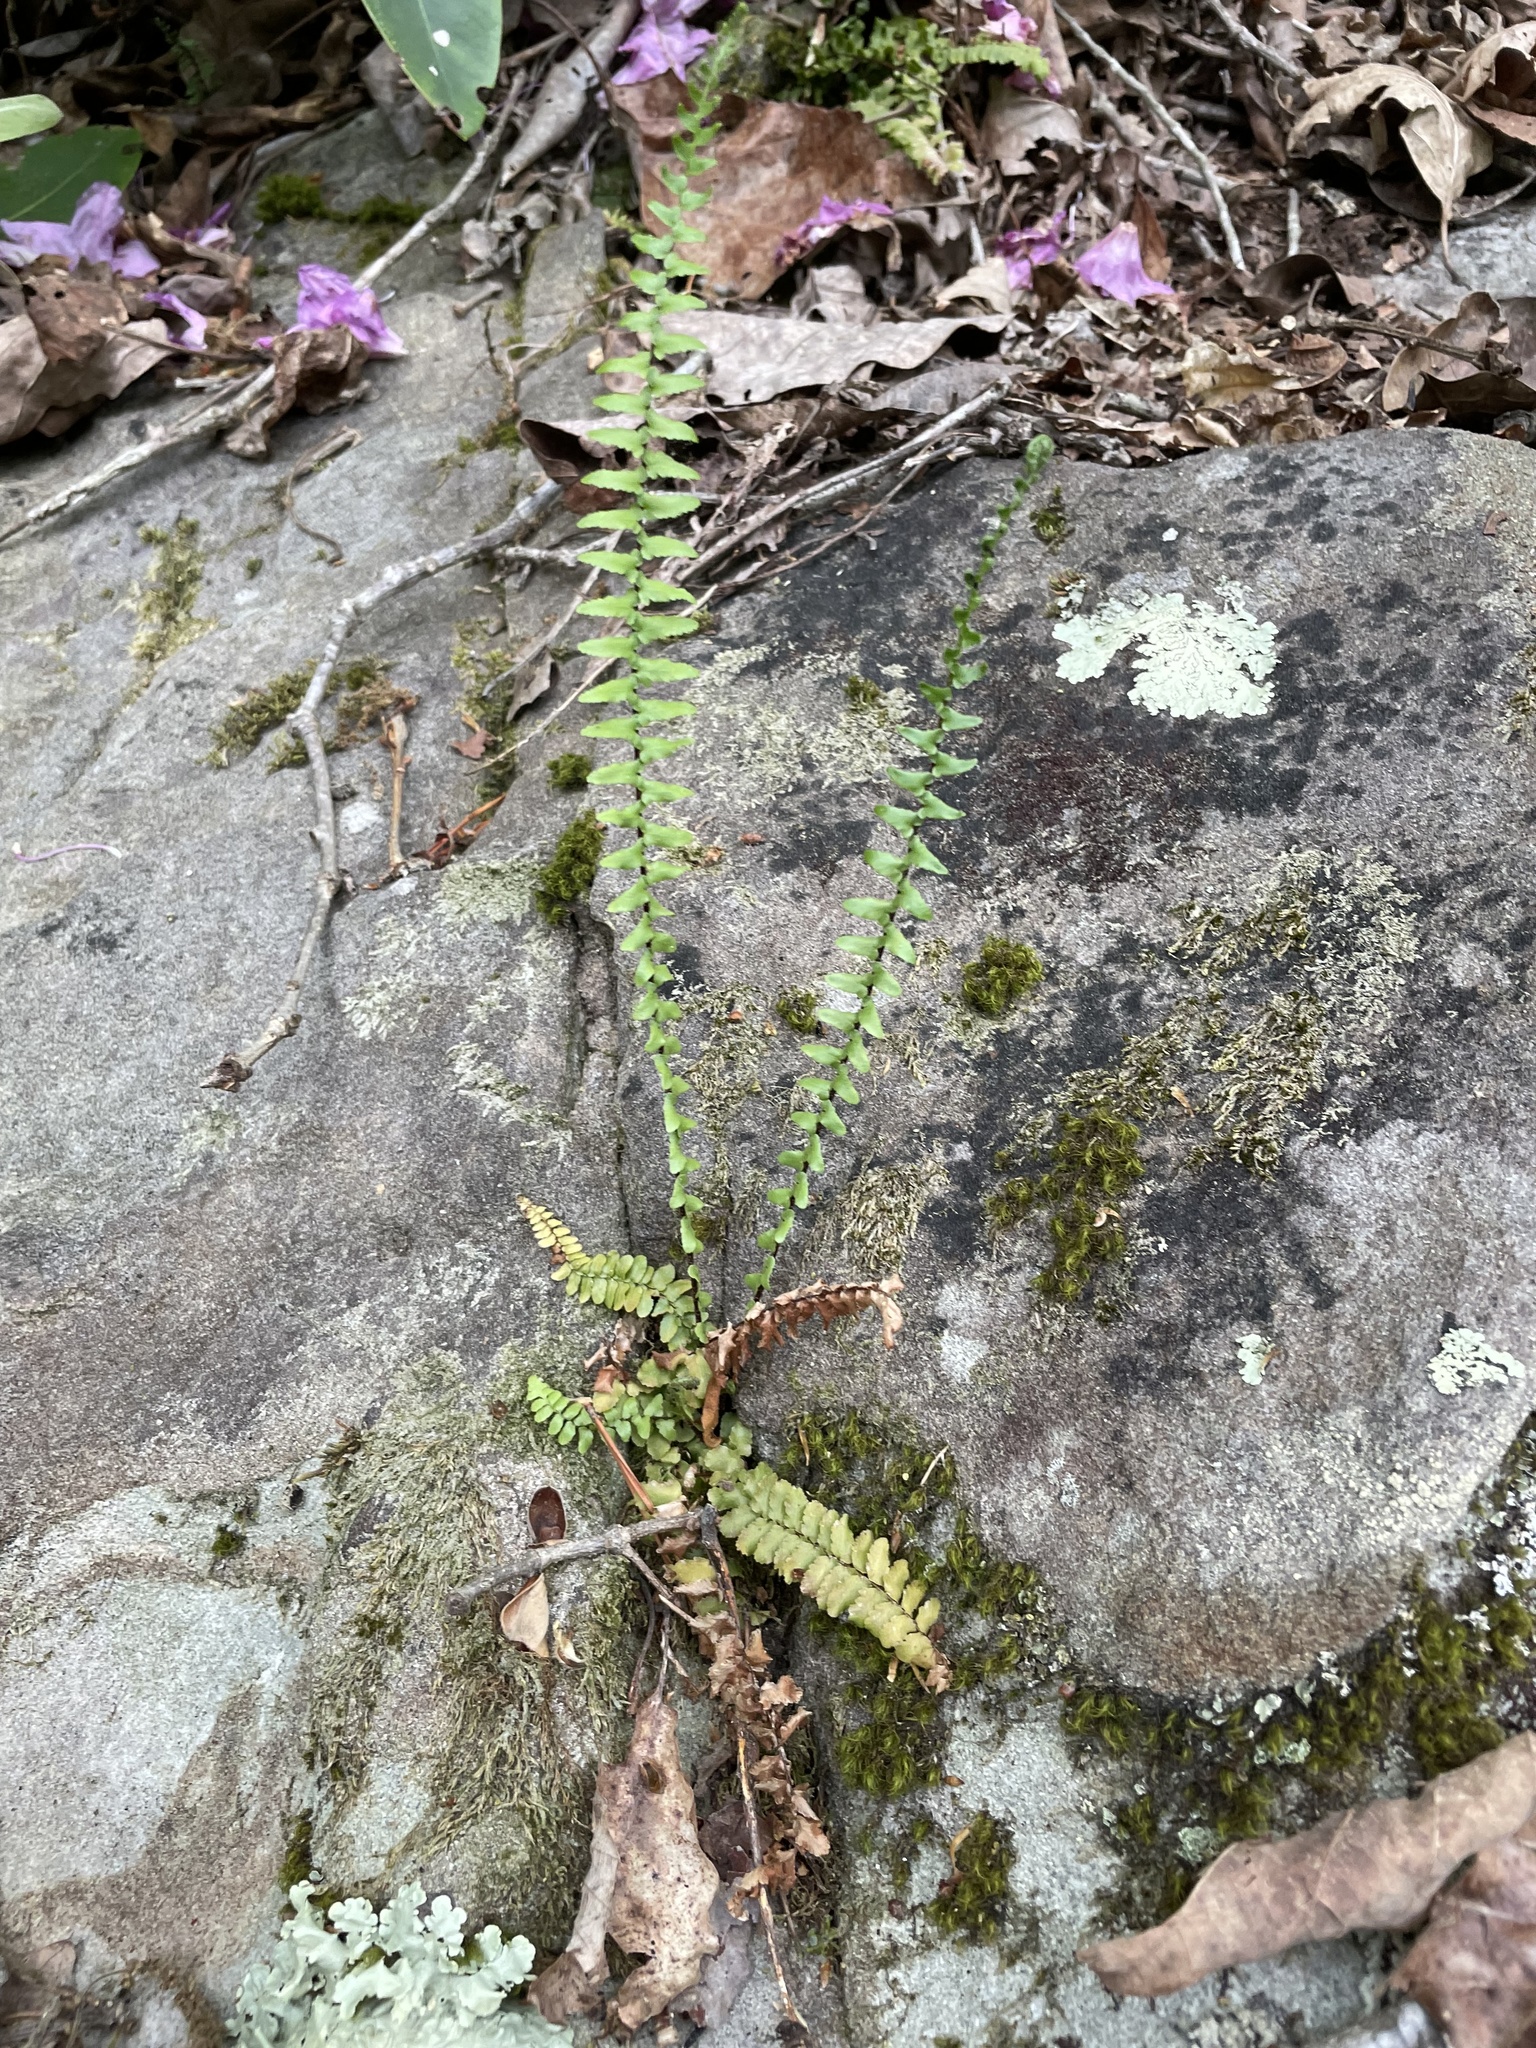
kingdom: Plantae
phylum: Tracheophyta
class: Polypodiopsida
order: Polypodiales
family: Aspleniaceae
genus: Asplenium
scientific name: Asplenium platyneuron
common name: Ebony spleenwort
